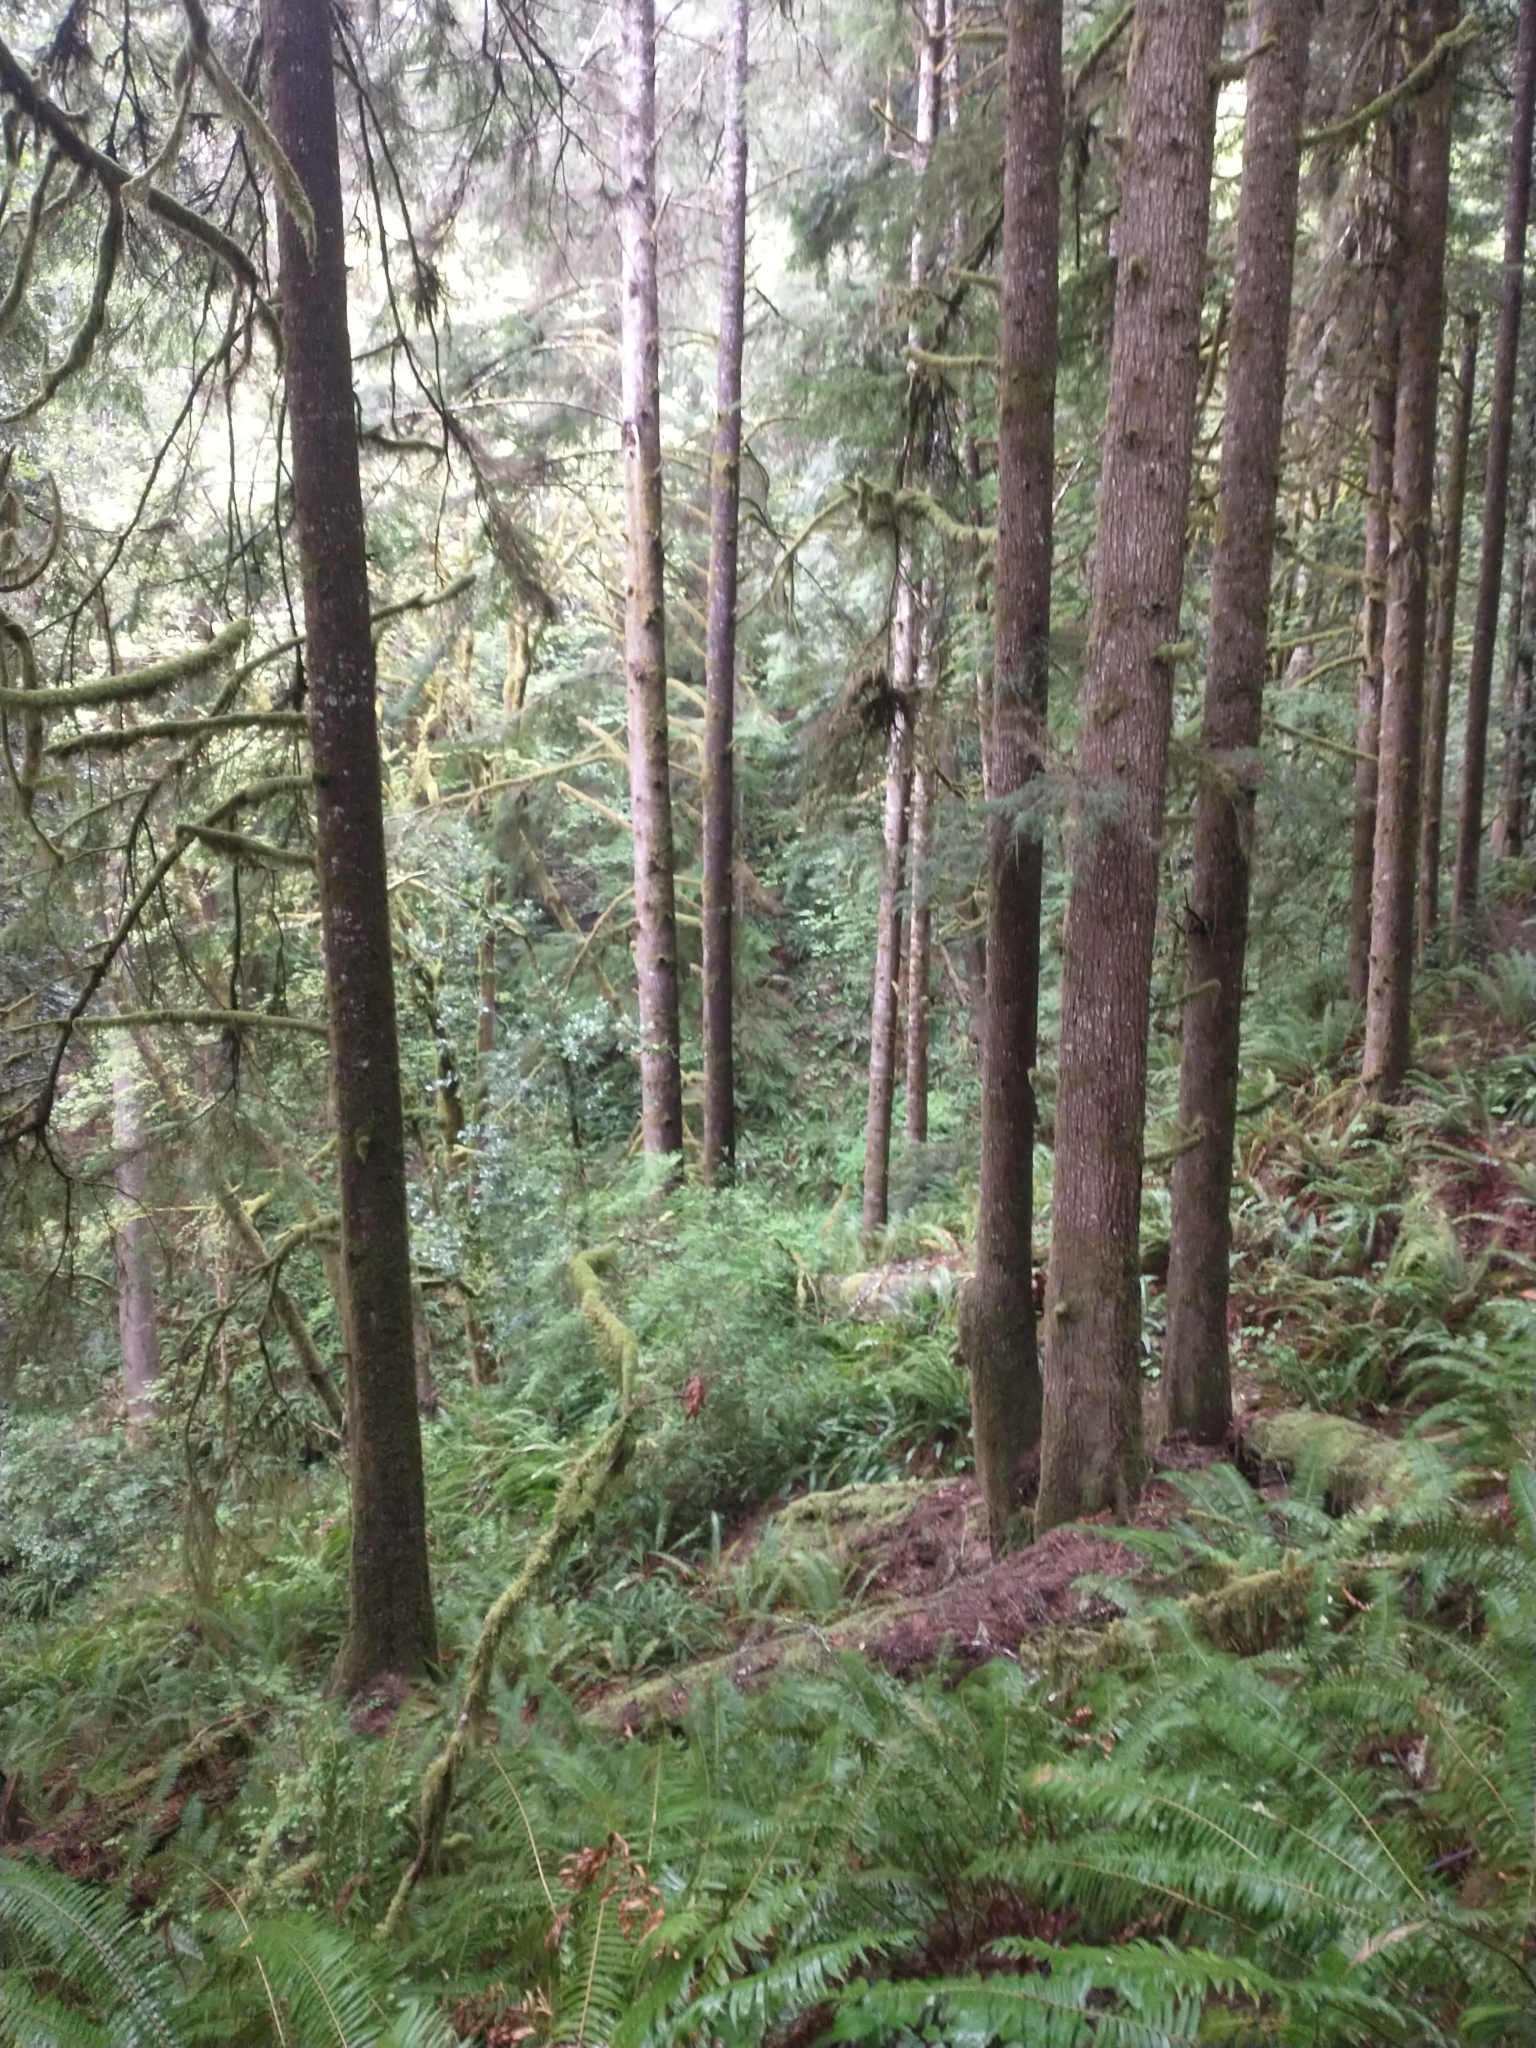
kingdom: Plantae
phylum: Tracheophyta
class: Pinopsida
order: Pinales
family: Pinaceae
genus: Tsuga
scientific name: Tsuga heterophylla
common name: Western hemlock
